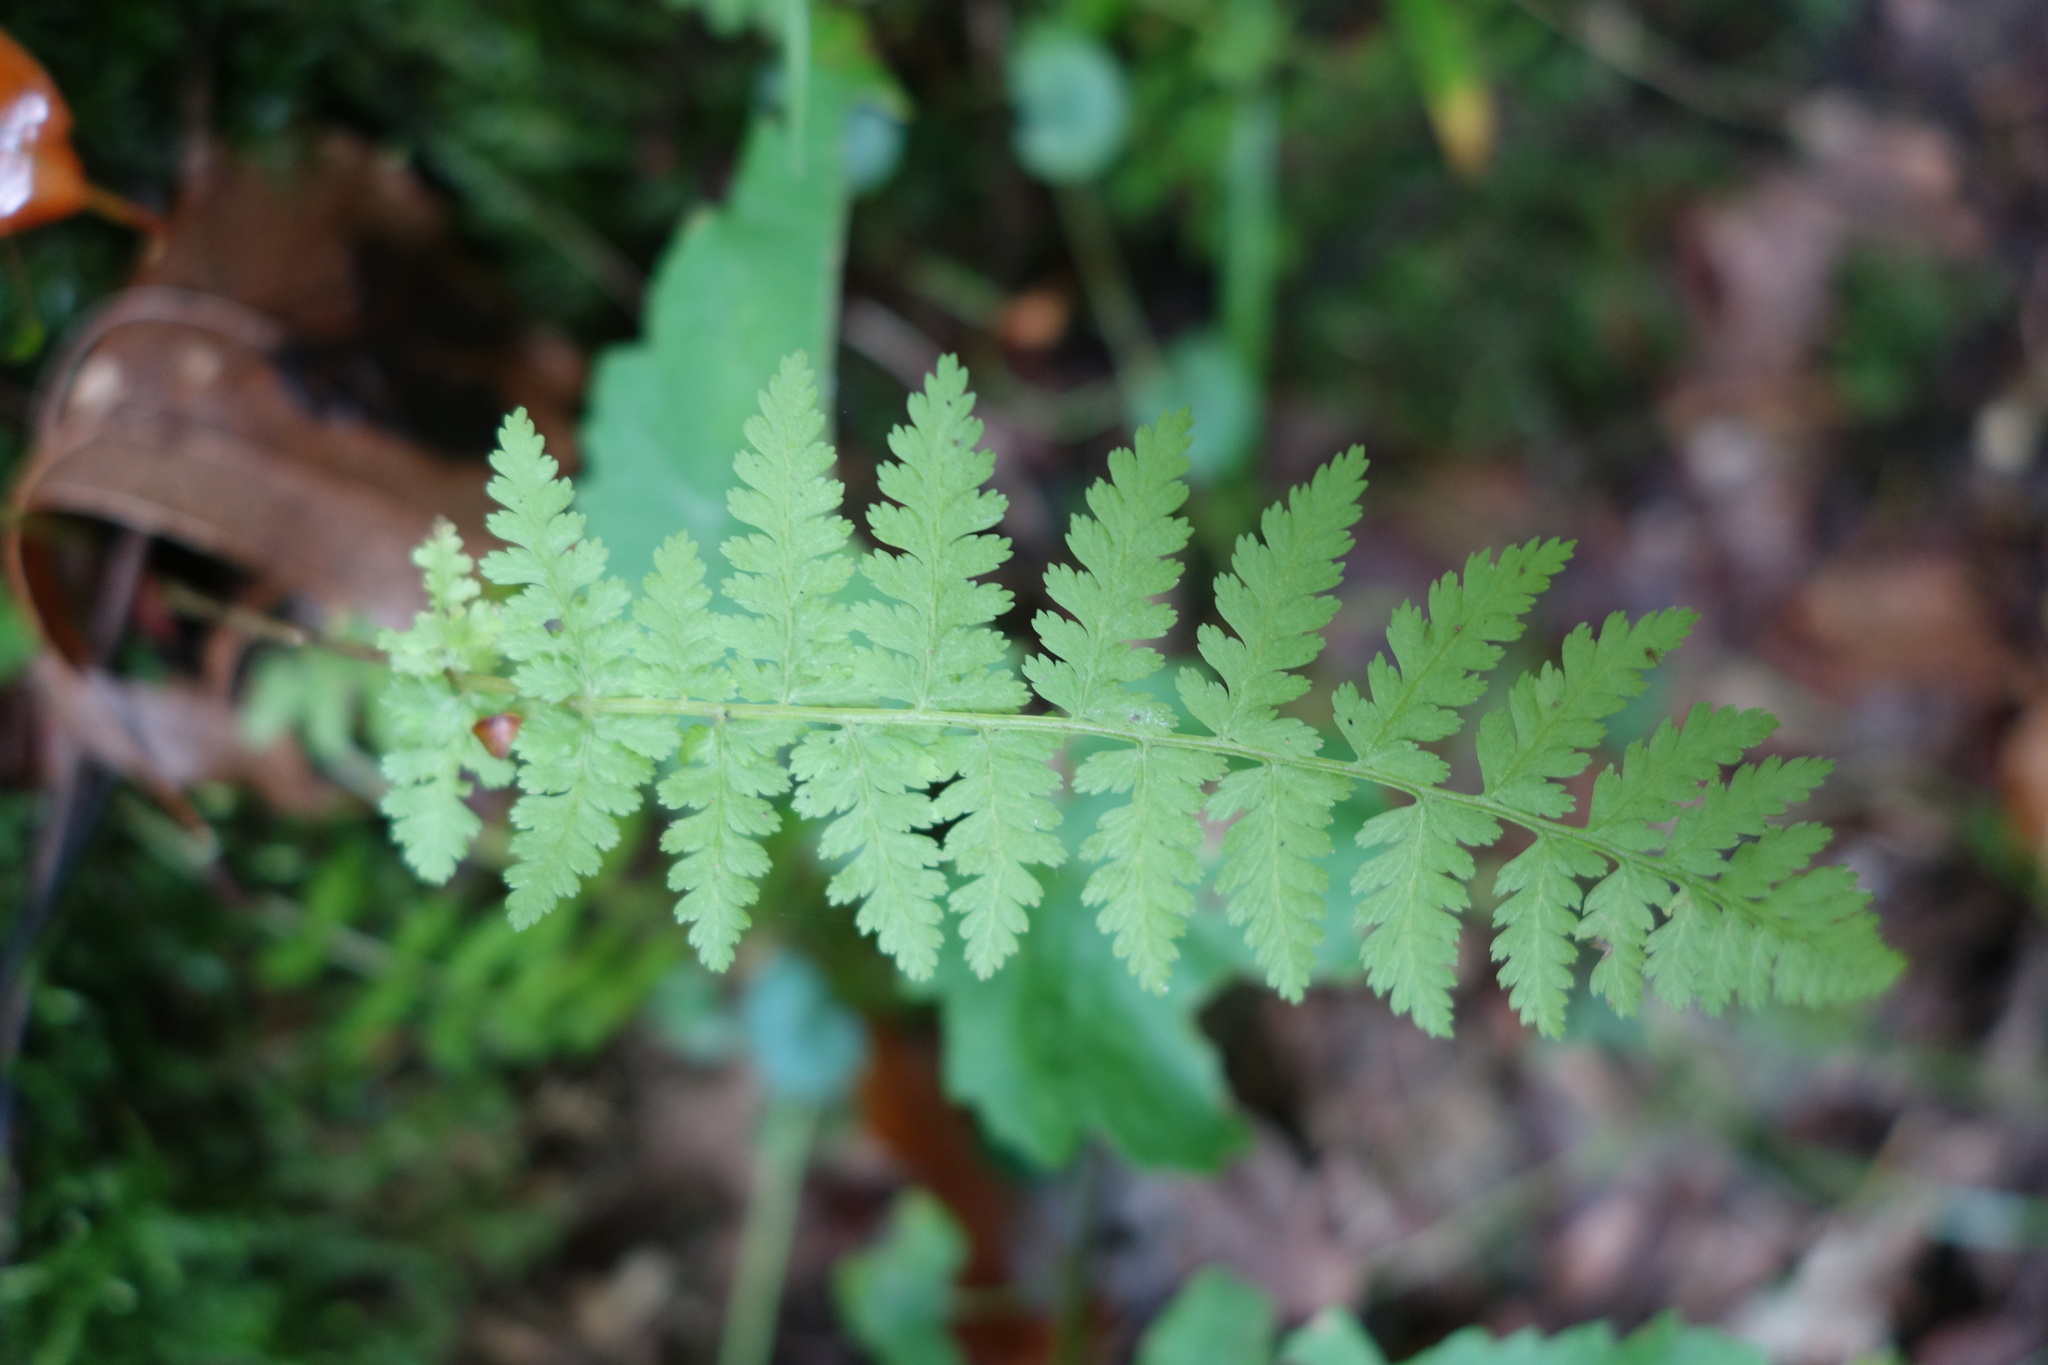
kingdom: Plantae
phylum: Tracheophyta
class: Polypodiopsida
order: Polypodiales
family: Athyriaceae
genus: Athyrium
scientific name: Athyrium filix-femina
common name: Lady fern
